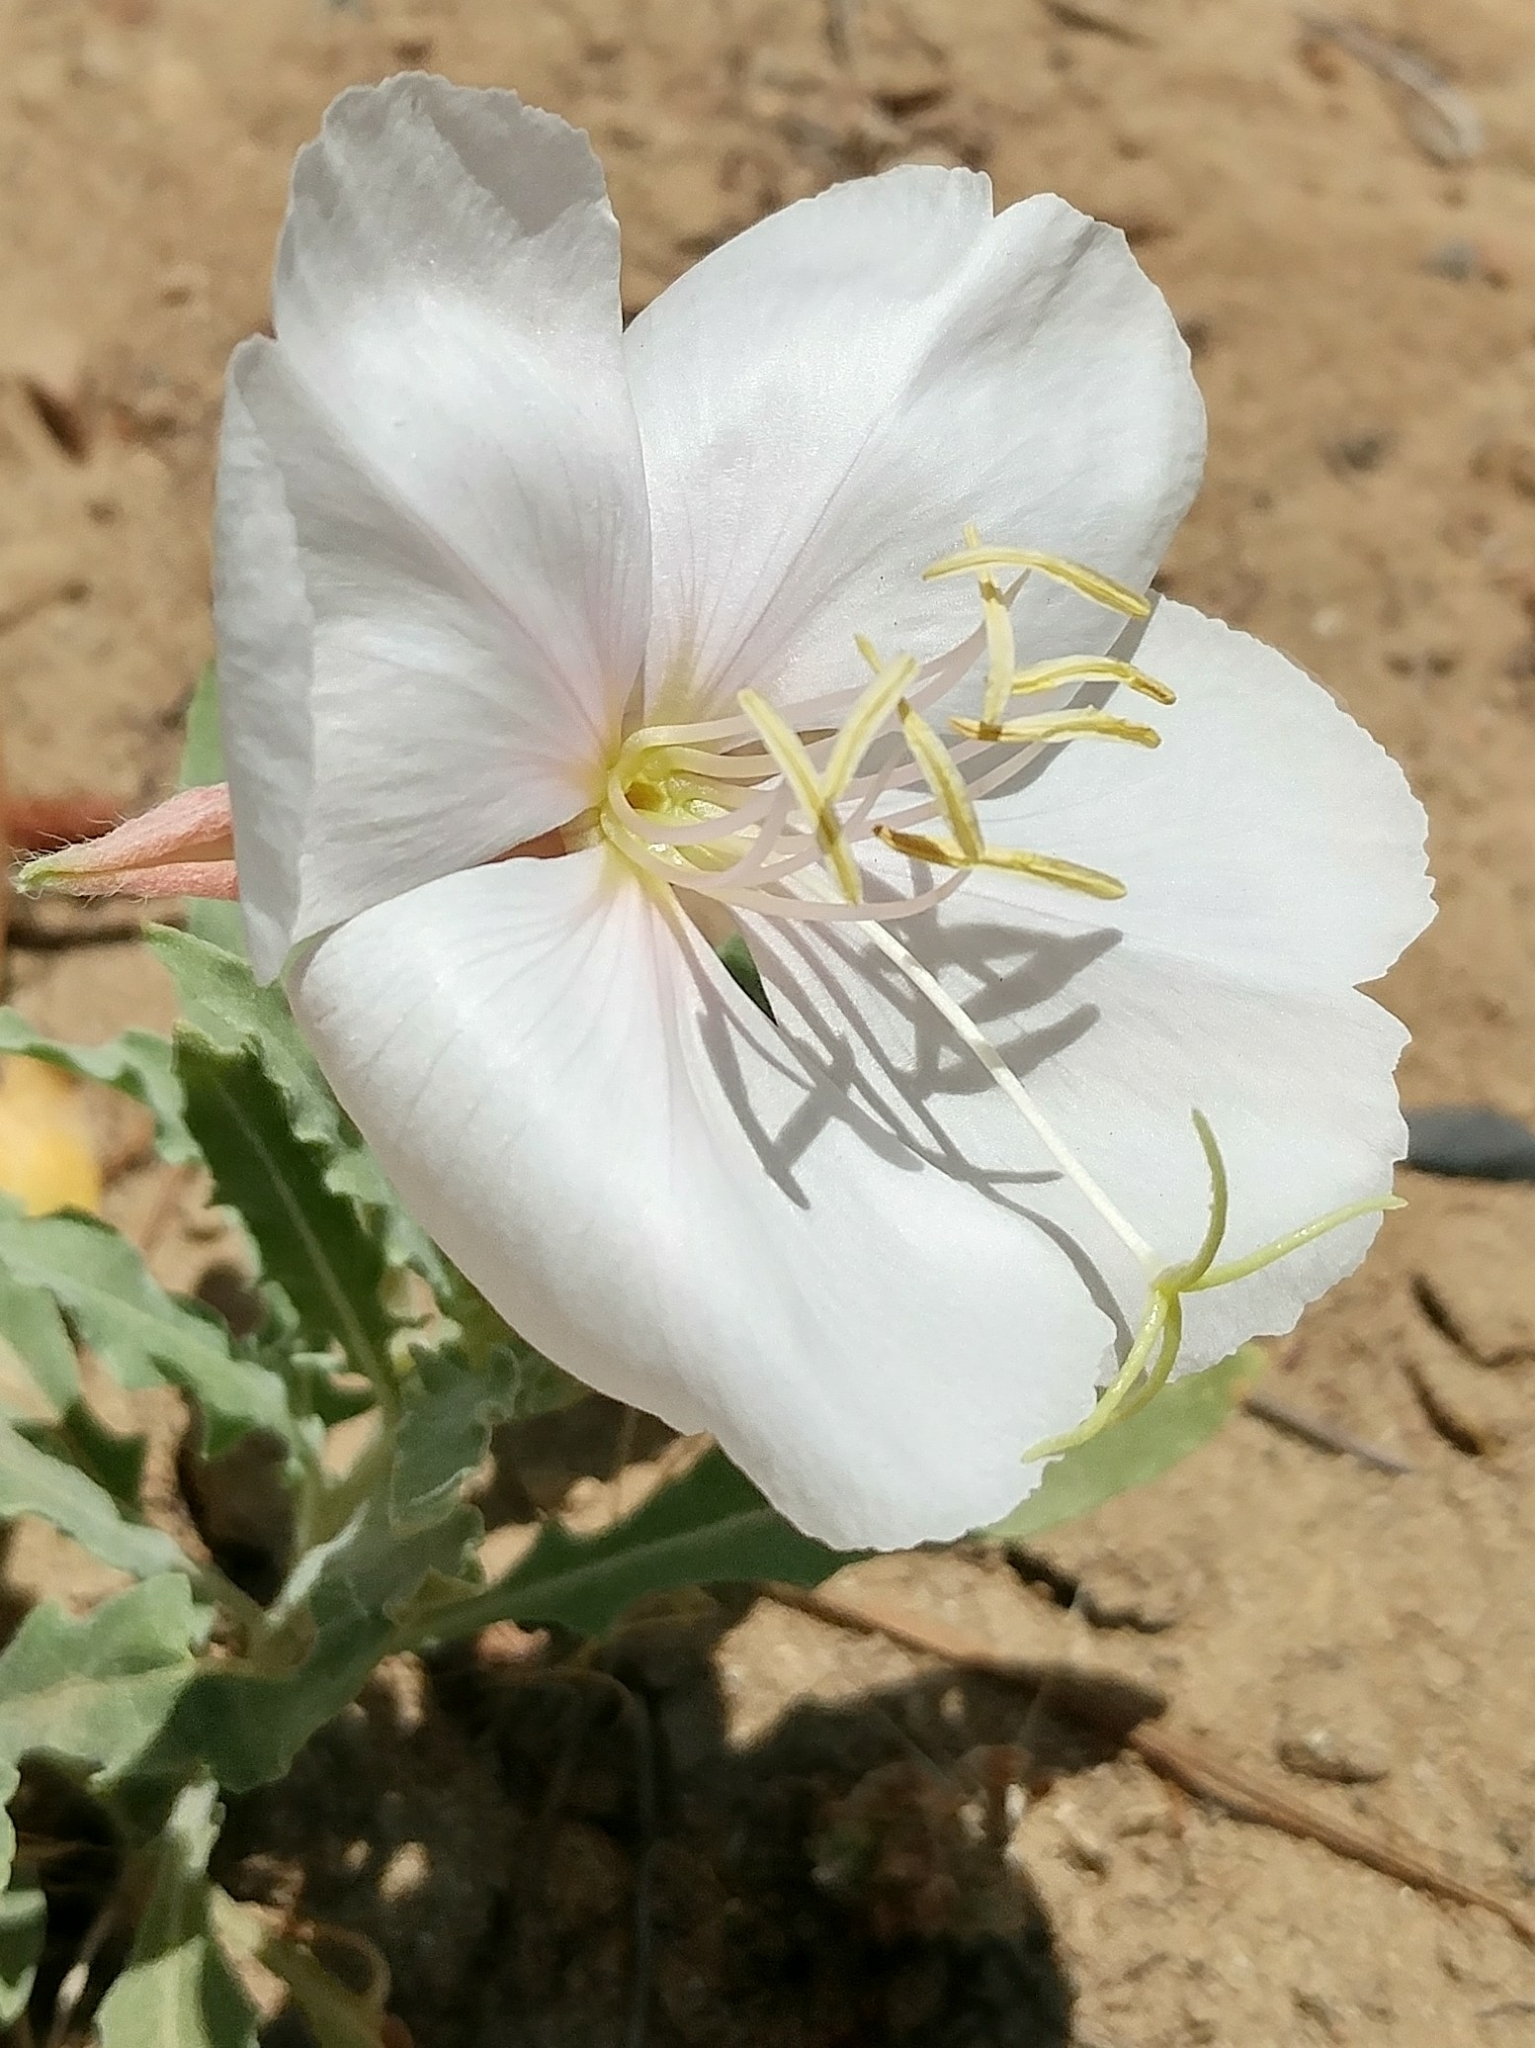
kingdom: Plantae
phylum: Tracheophyta
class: Magnoliopsida
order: Myrtales
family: Onagraceae
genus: Oenothera
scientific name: Oenothera californica
